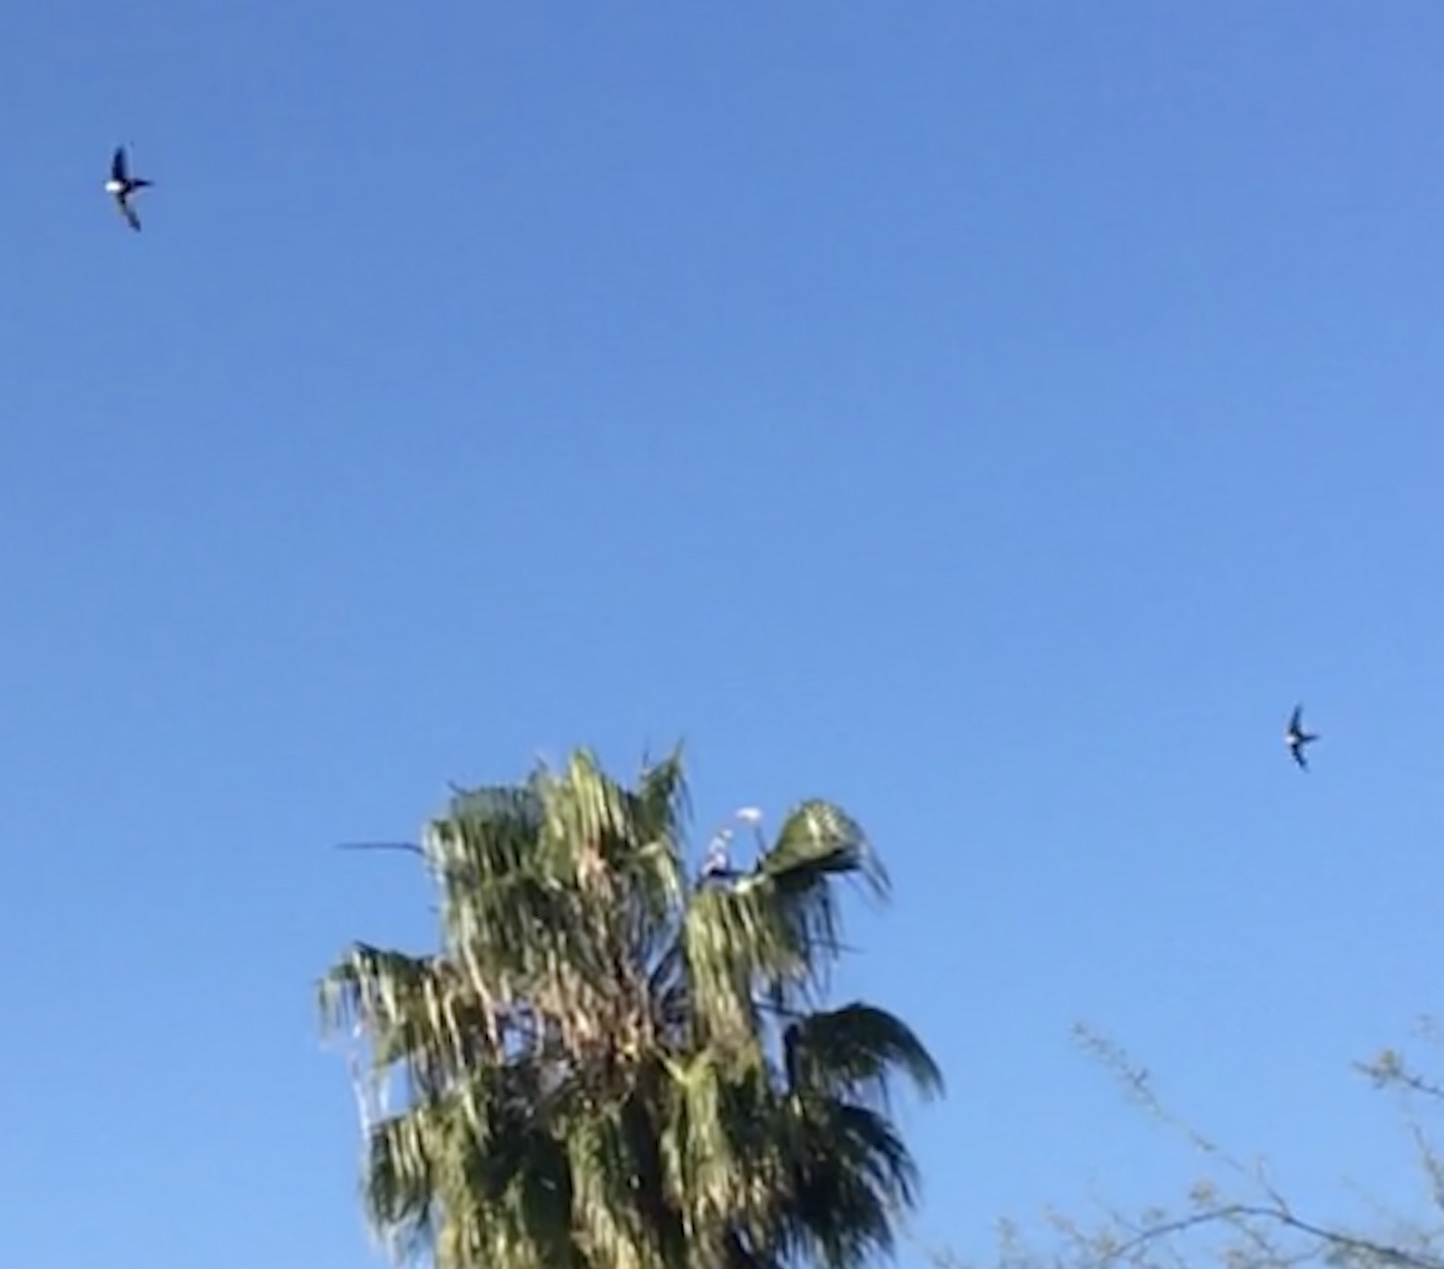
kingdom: Animalia
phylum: Chordata
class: Aves
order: Apodiformes
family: Apodidae
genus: Aeronautes
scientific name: Aeronautes saxatalis
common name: White-throated swift
